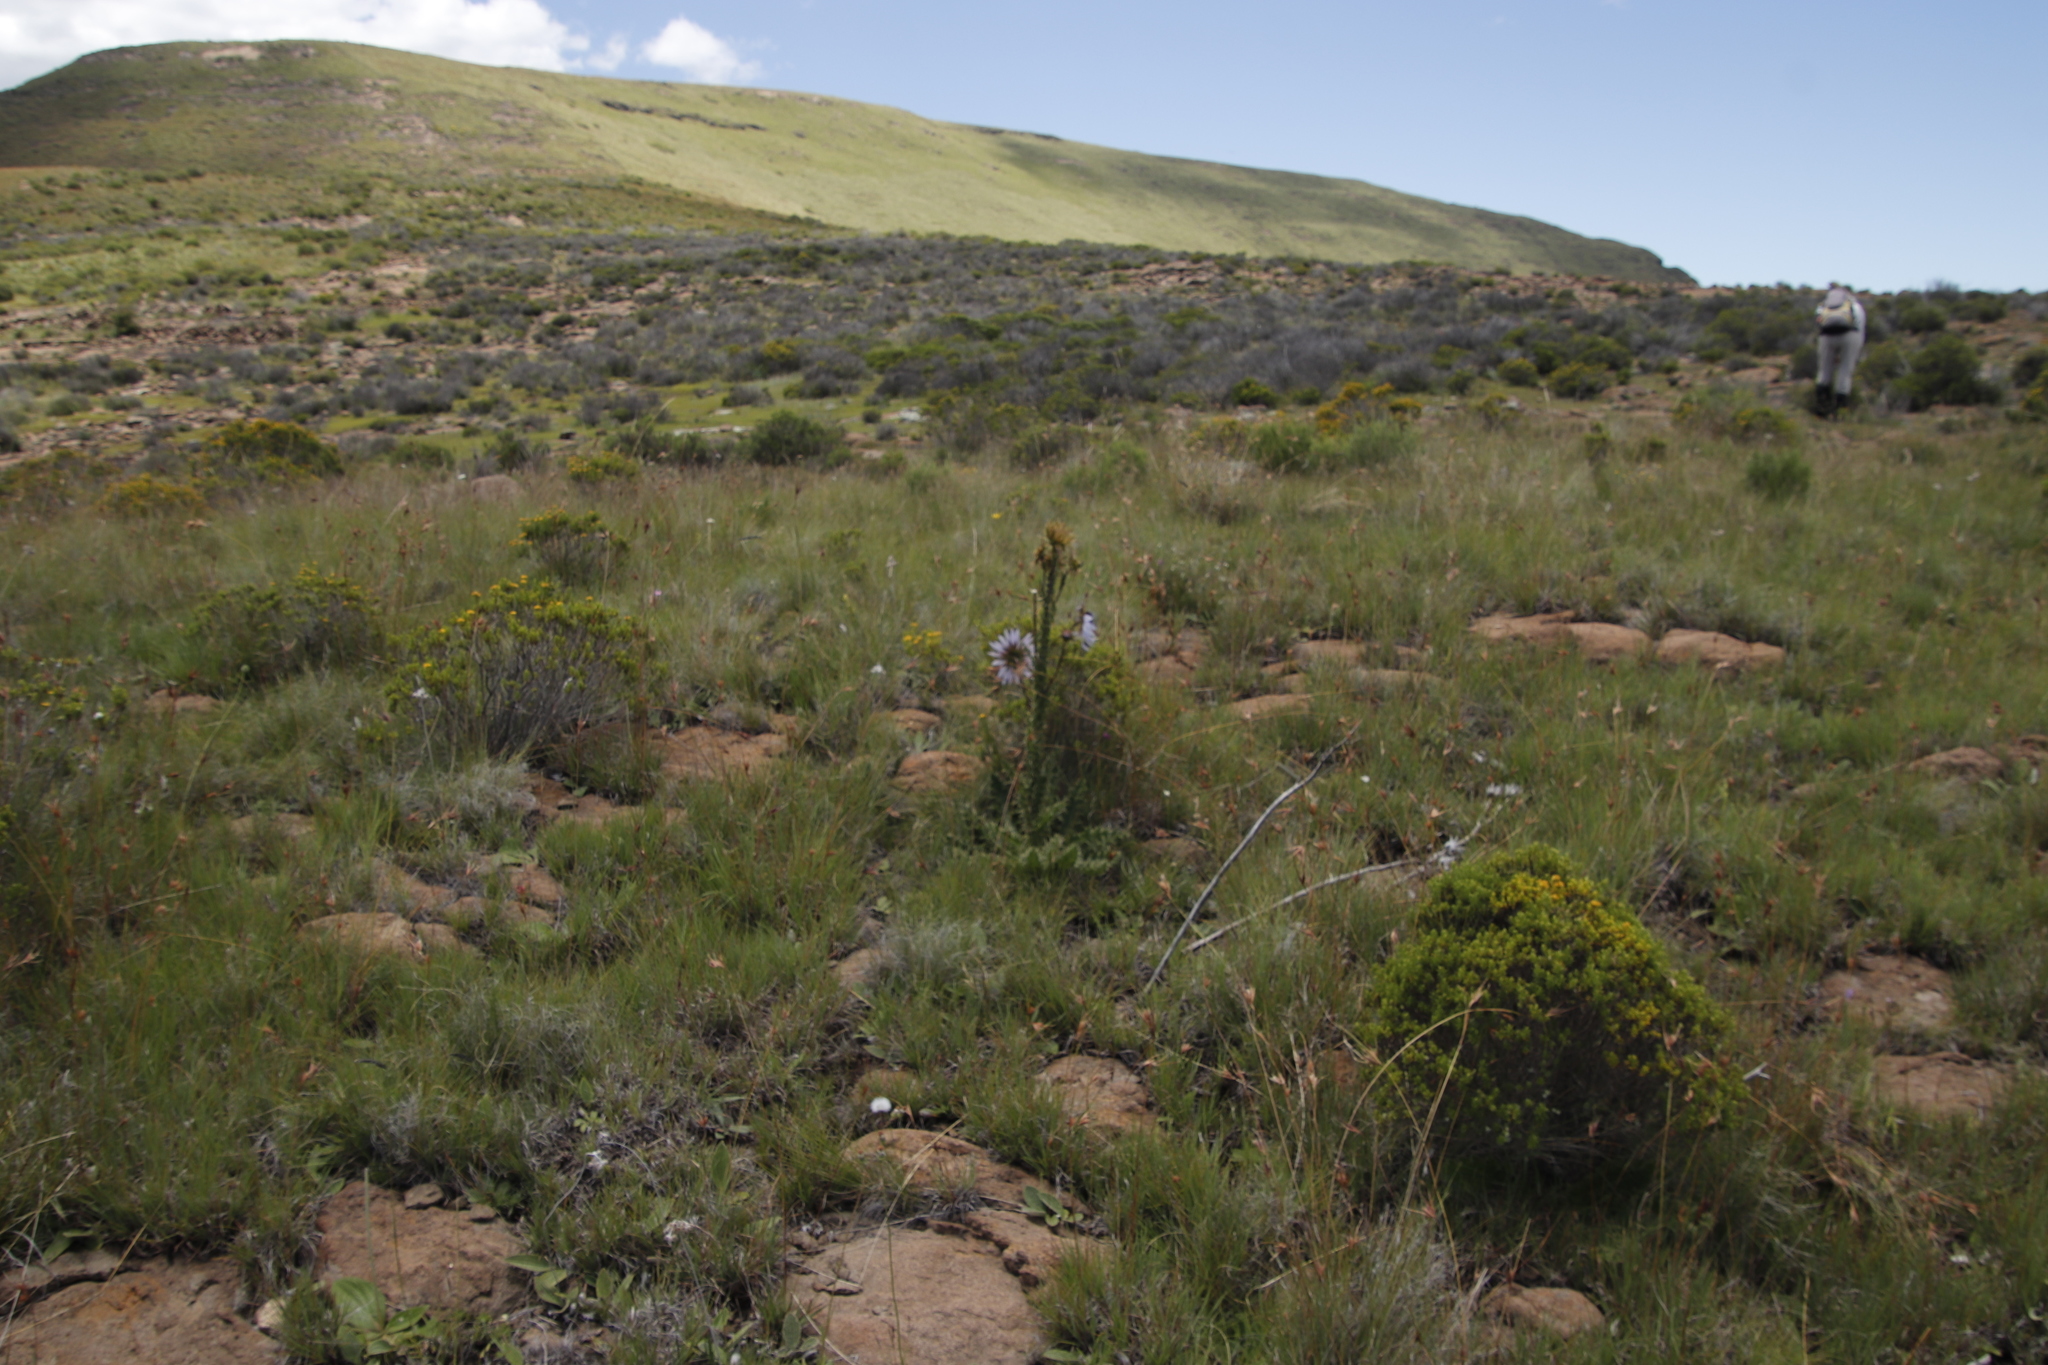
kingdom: Plantae
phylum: Tracheophyta
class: Magnoliopsida
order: Asterales
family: Asteraceae
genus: Berkheya
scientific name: Berkheya purpurea
